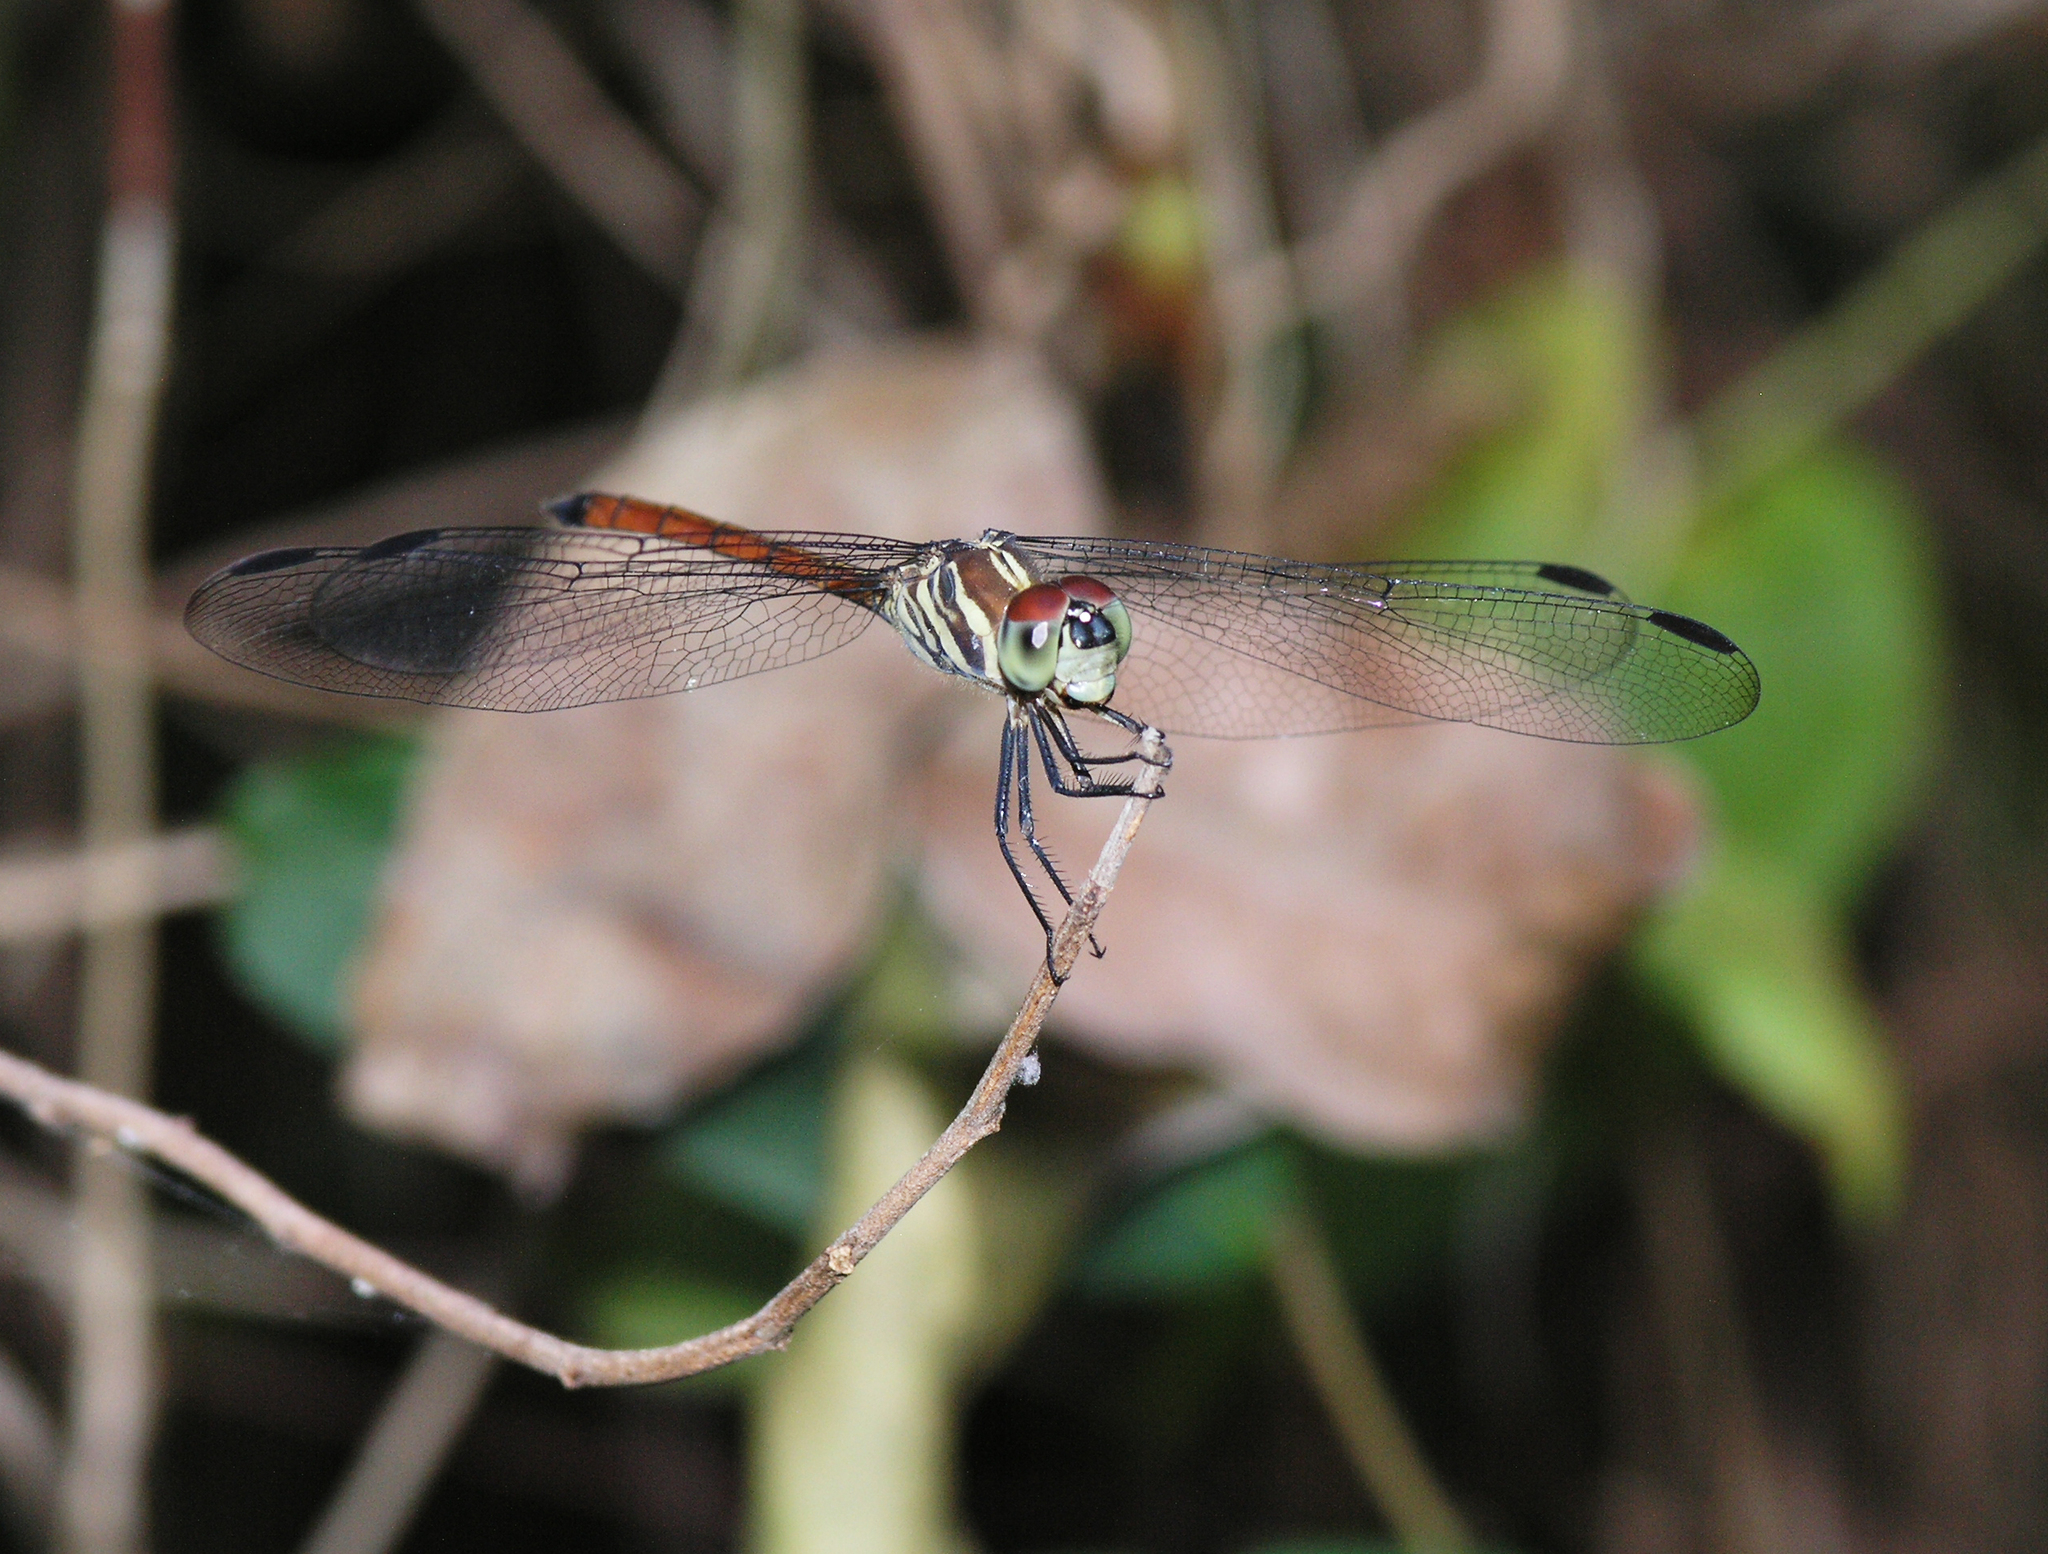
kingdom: Animalia
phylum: Arthropoda
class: Insecta
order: Odonata
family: Libellulidae
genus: Lathrecista
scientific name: Lathrecista asiatica
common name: Scarlet grenadier
